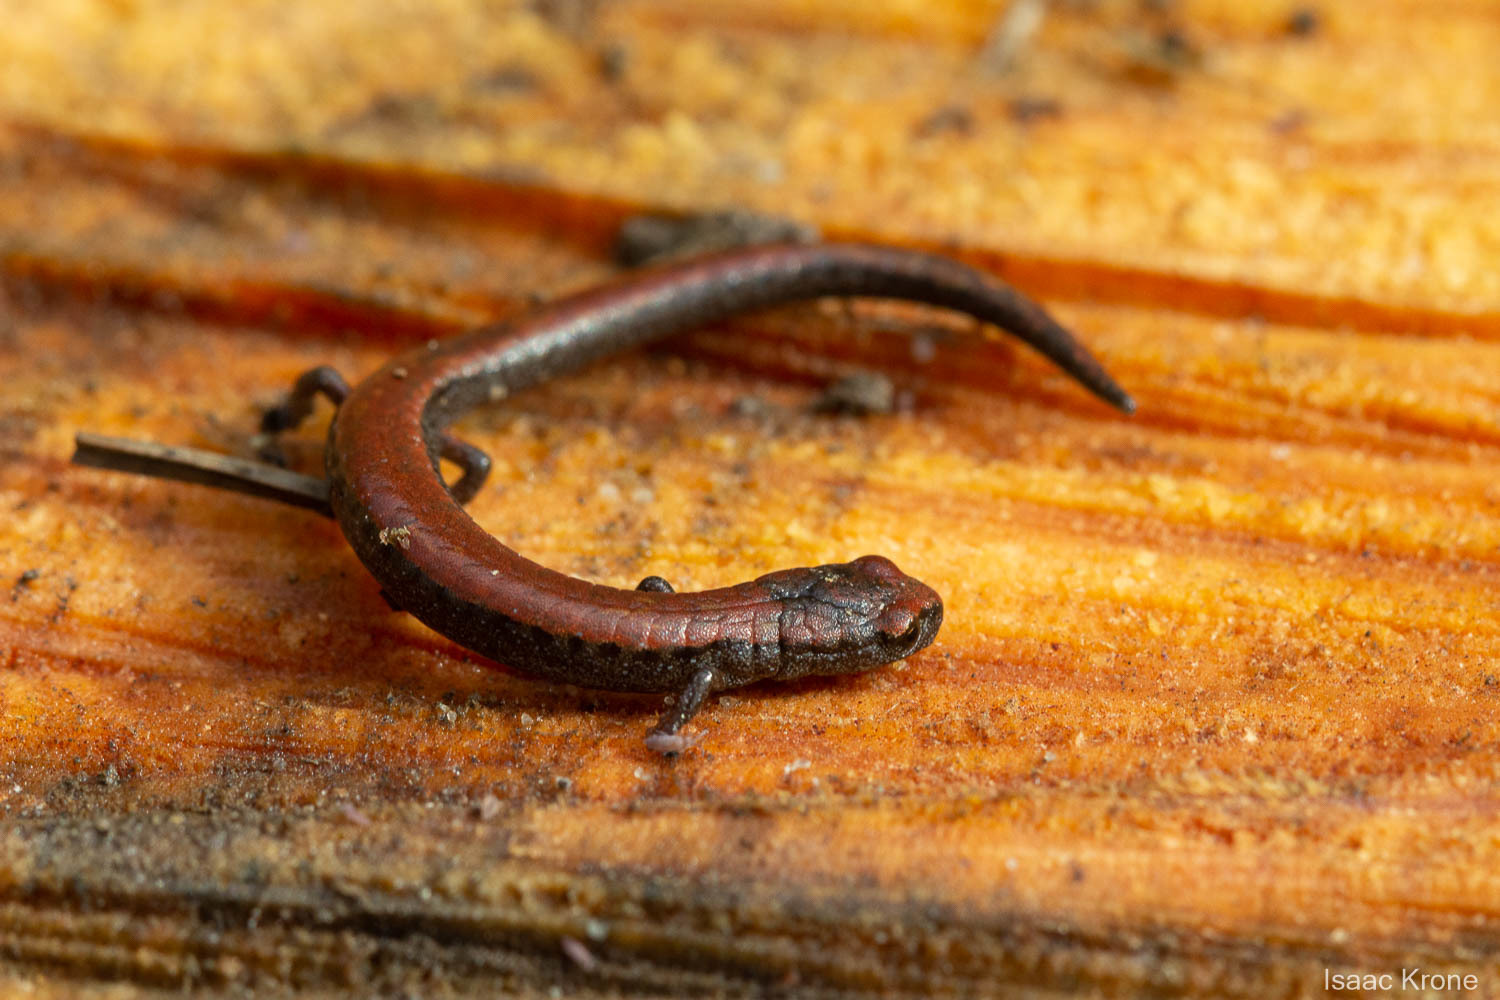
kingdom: Animalia
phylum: Chordata
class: Amphibia
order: Caudata
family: Plethodontidae
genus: Batrachoseps
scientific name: Batrachoseps attenuatus
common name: California slender salamander
